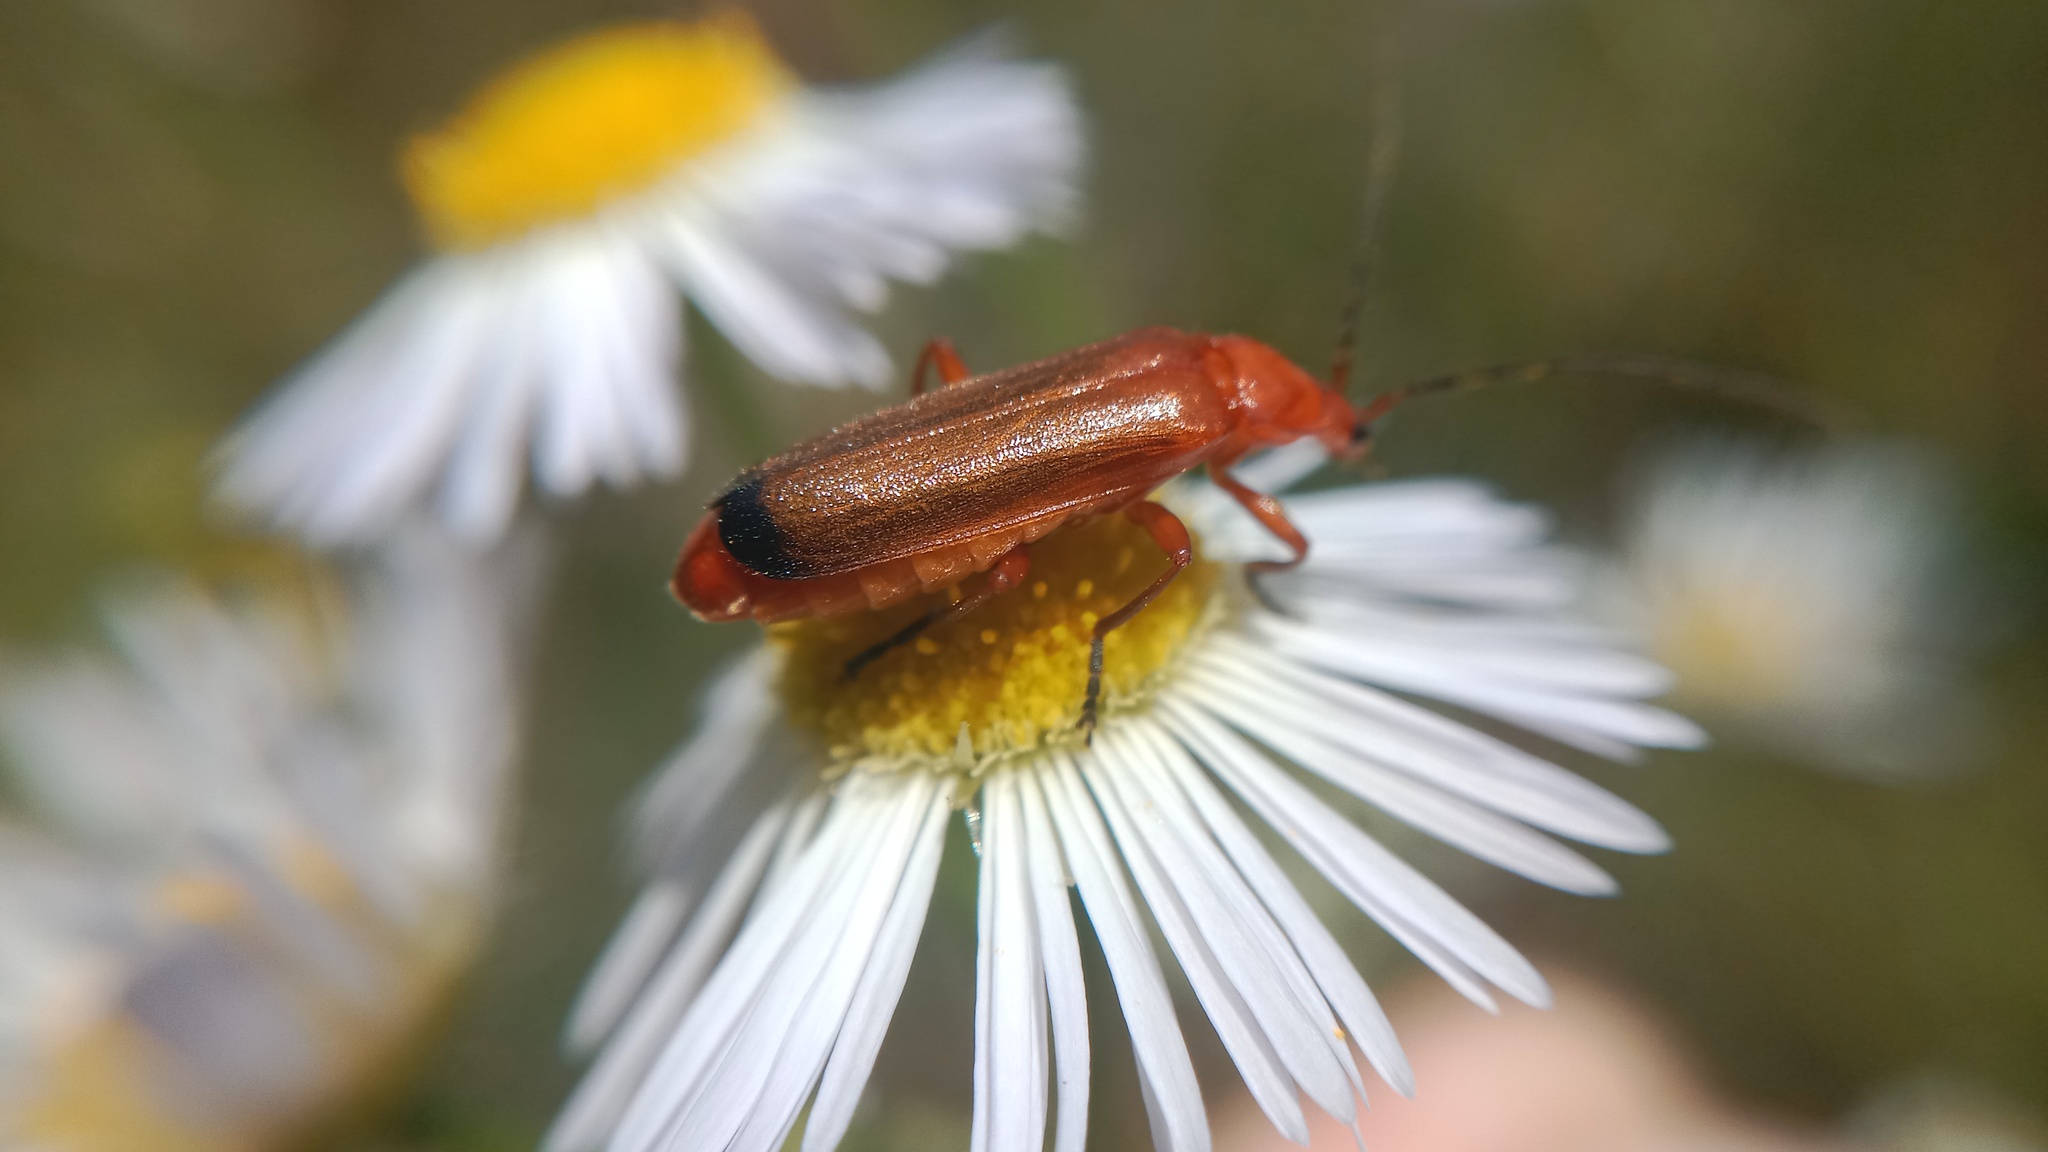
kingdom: Animalia
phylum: Arthropoda
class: Insecta
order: Coleoptera
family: Cantharidae
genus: Rhagonycha
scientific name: Rhagonycha fulva
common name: Common red soldier beetle
